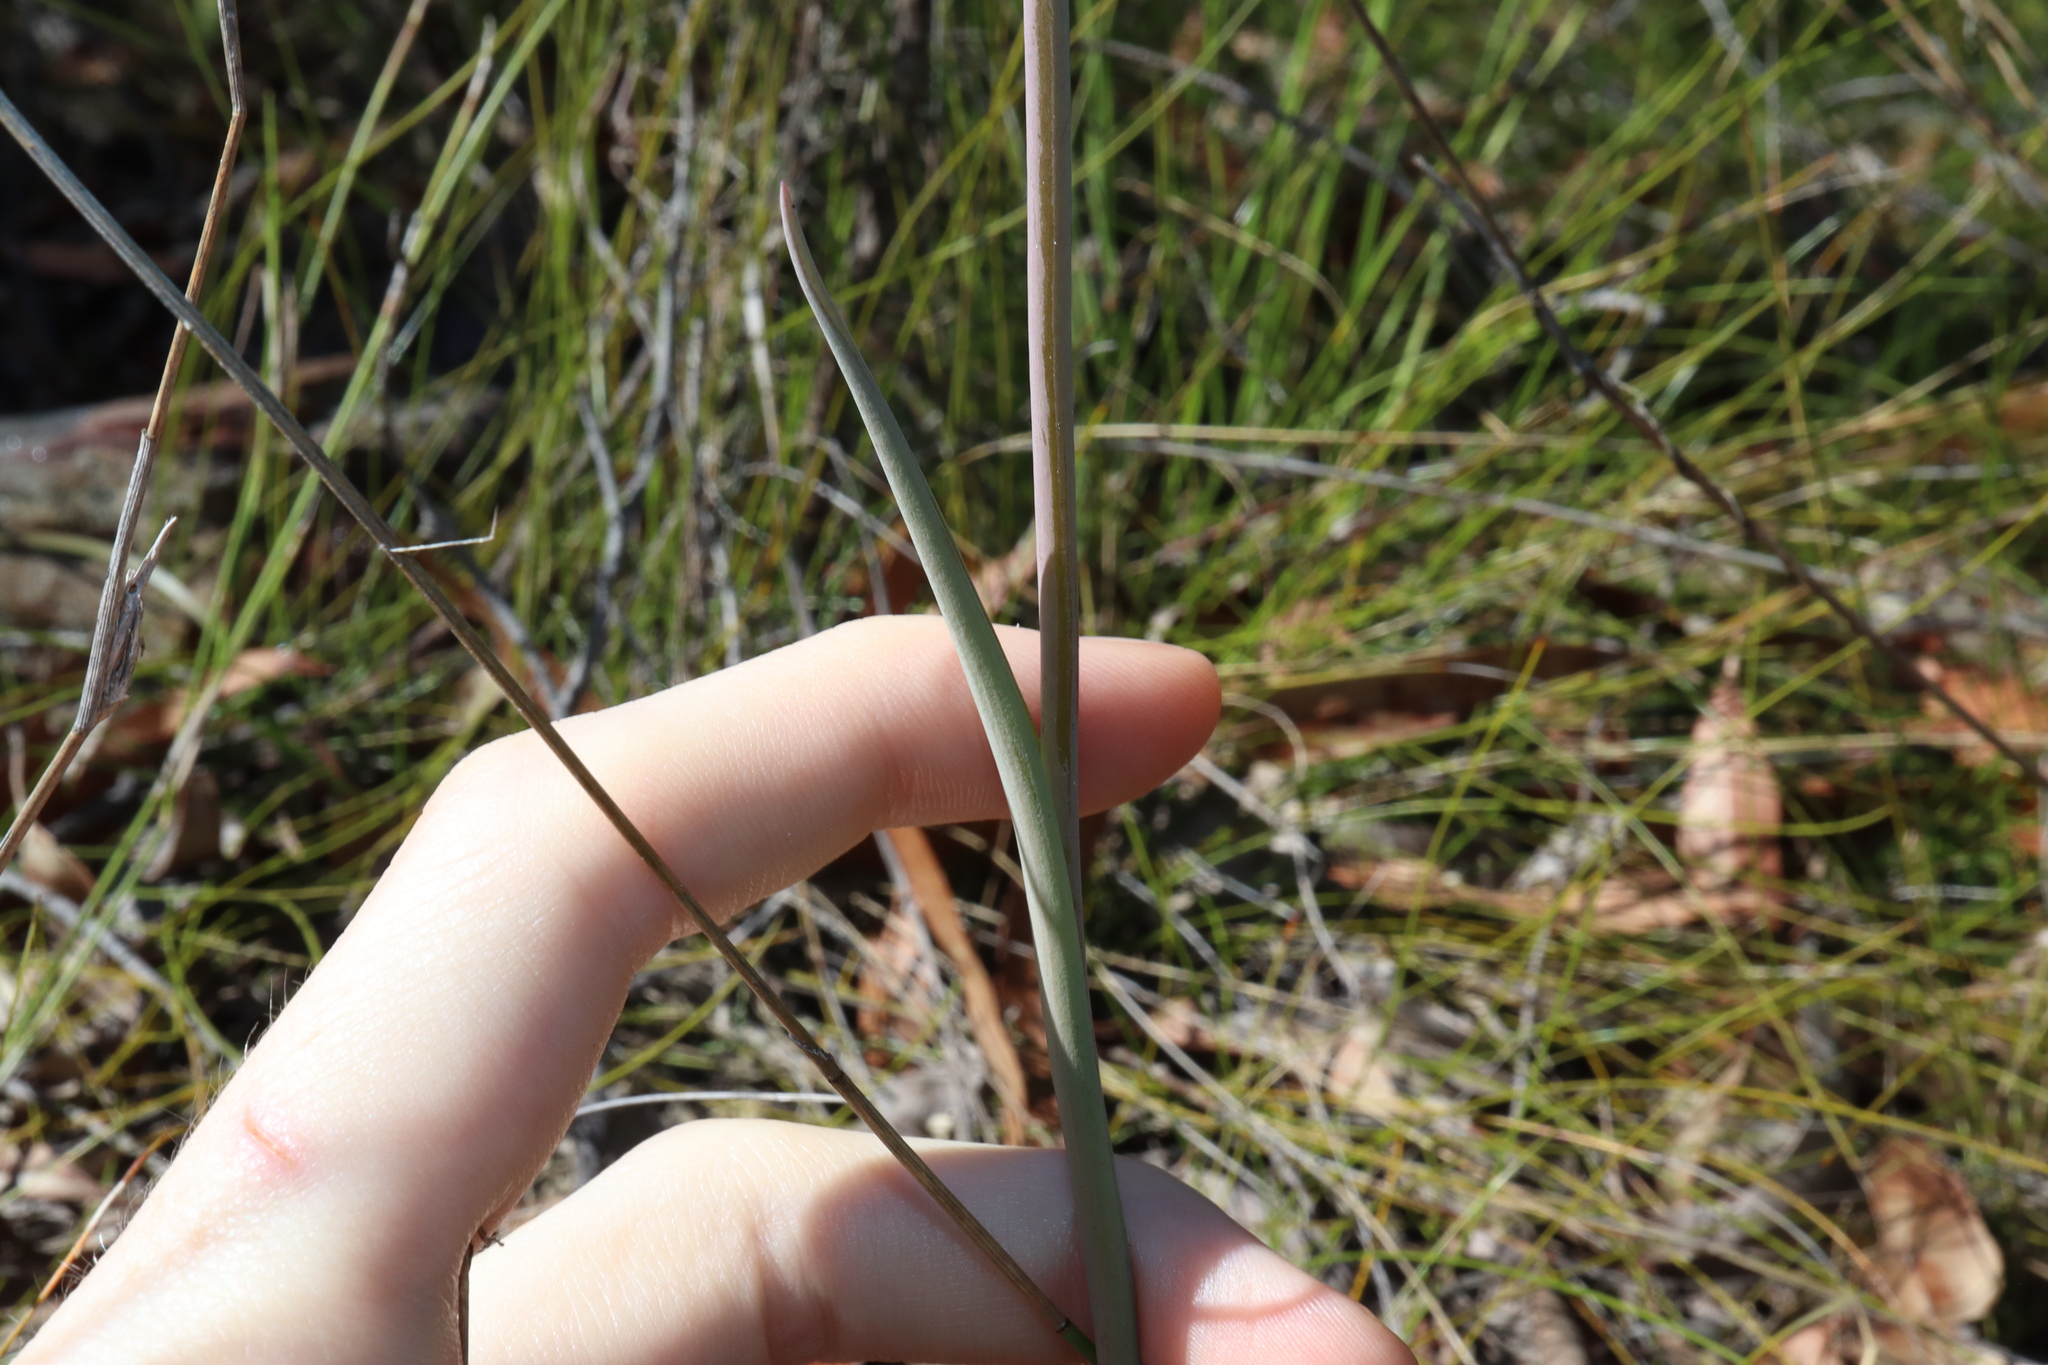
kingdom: Plantae
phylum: Tracheophyta
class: Liliopsida
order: Asparagales
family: Orchidaceae
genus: Thelymitra
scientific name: Thelymitra ixioides
